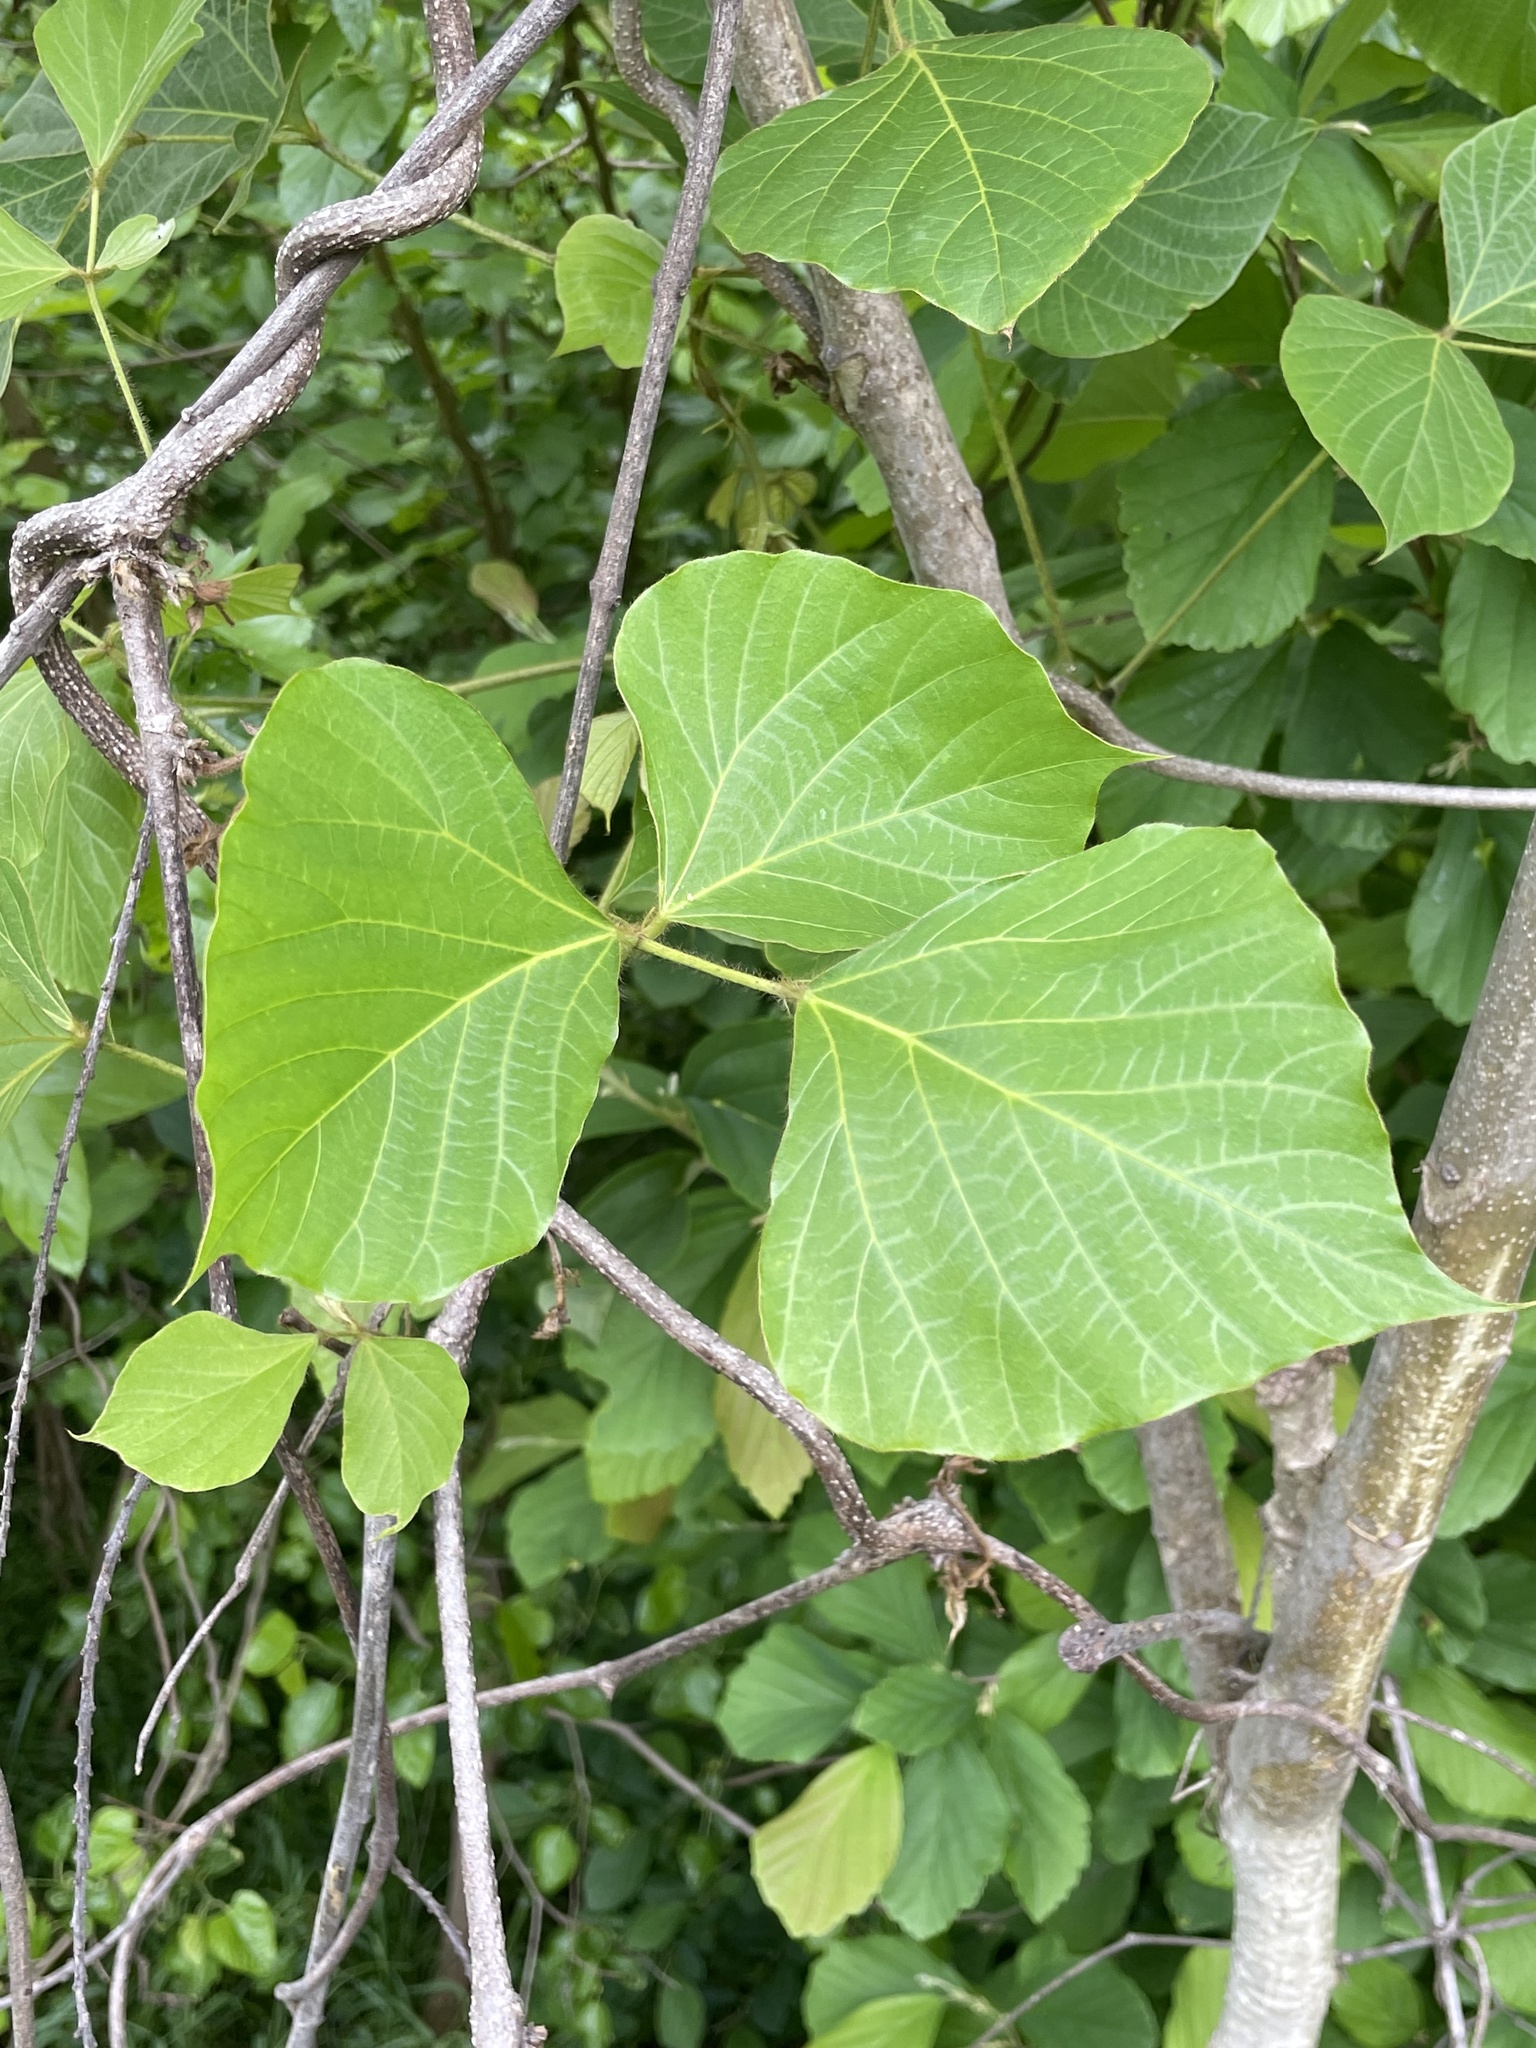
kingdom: Plantae
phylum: Tracheophyta
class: Magnoliopsida
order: Fabales
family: Fabaceae
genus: Pueraria
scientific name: Pueraria montana
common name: Kudzu
